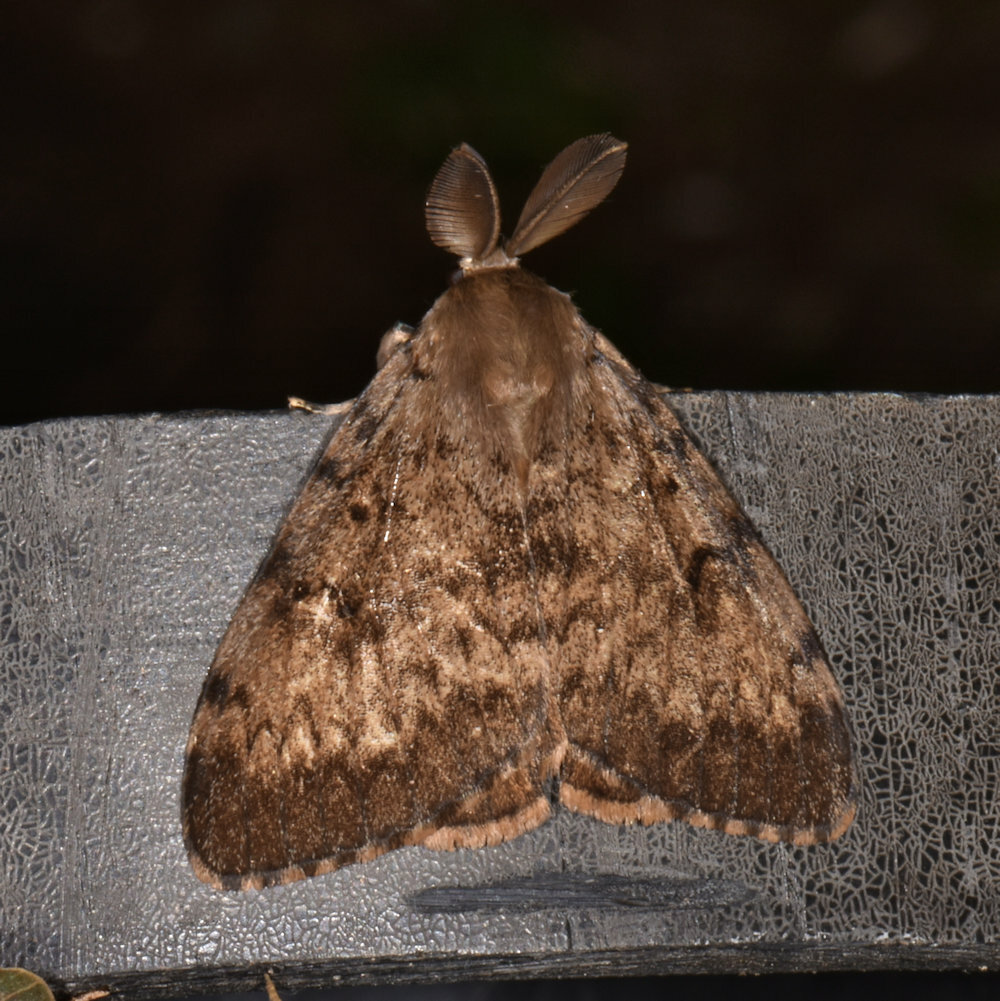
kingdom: Animalia
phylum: Arthropoda
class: Insecta
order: Lepidoptera
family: Erebidae
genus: Lymantria
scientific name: Lymantria dispar
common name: Gypsy moth
